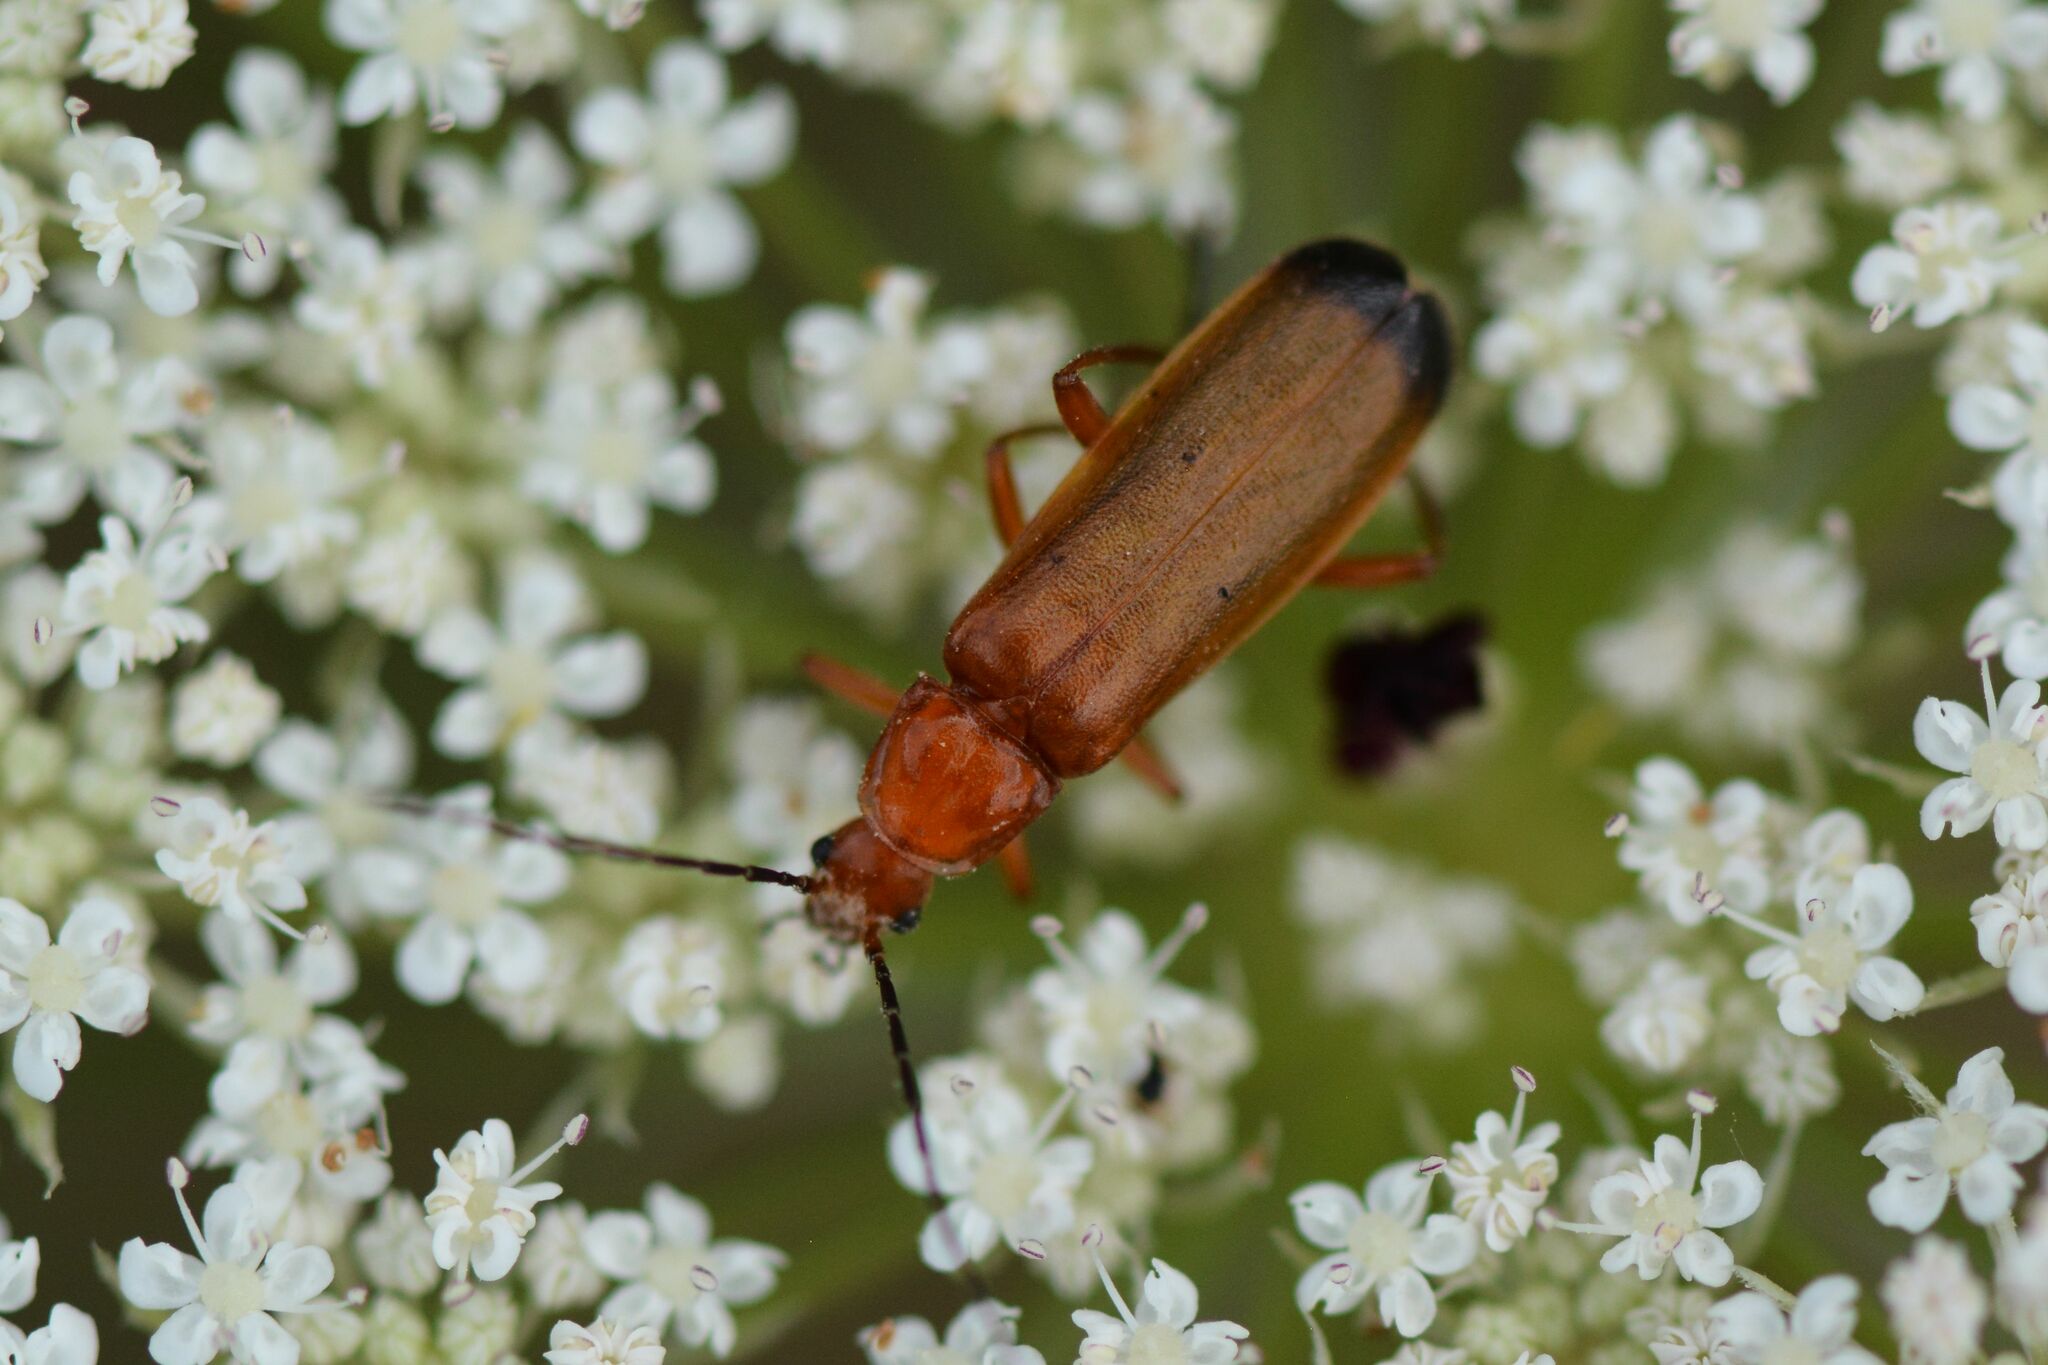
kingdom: Animalia
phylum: Arthropoda
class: Insecta
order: Coleoptera
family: Cantharidae
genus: Rhagonycha
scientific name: Rhagonycha fulva
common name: Common red soldier beetle
